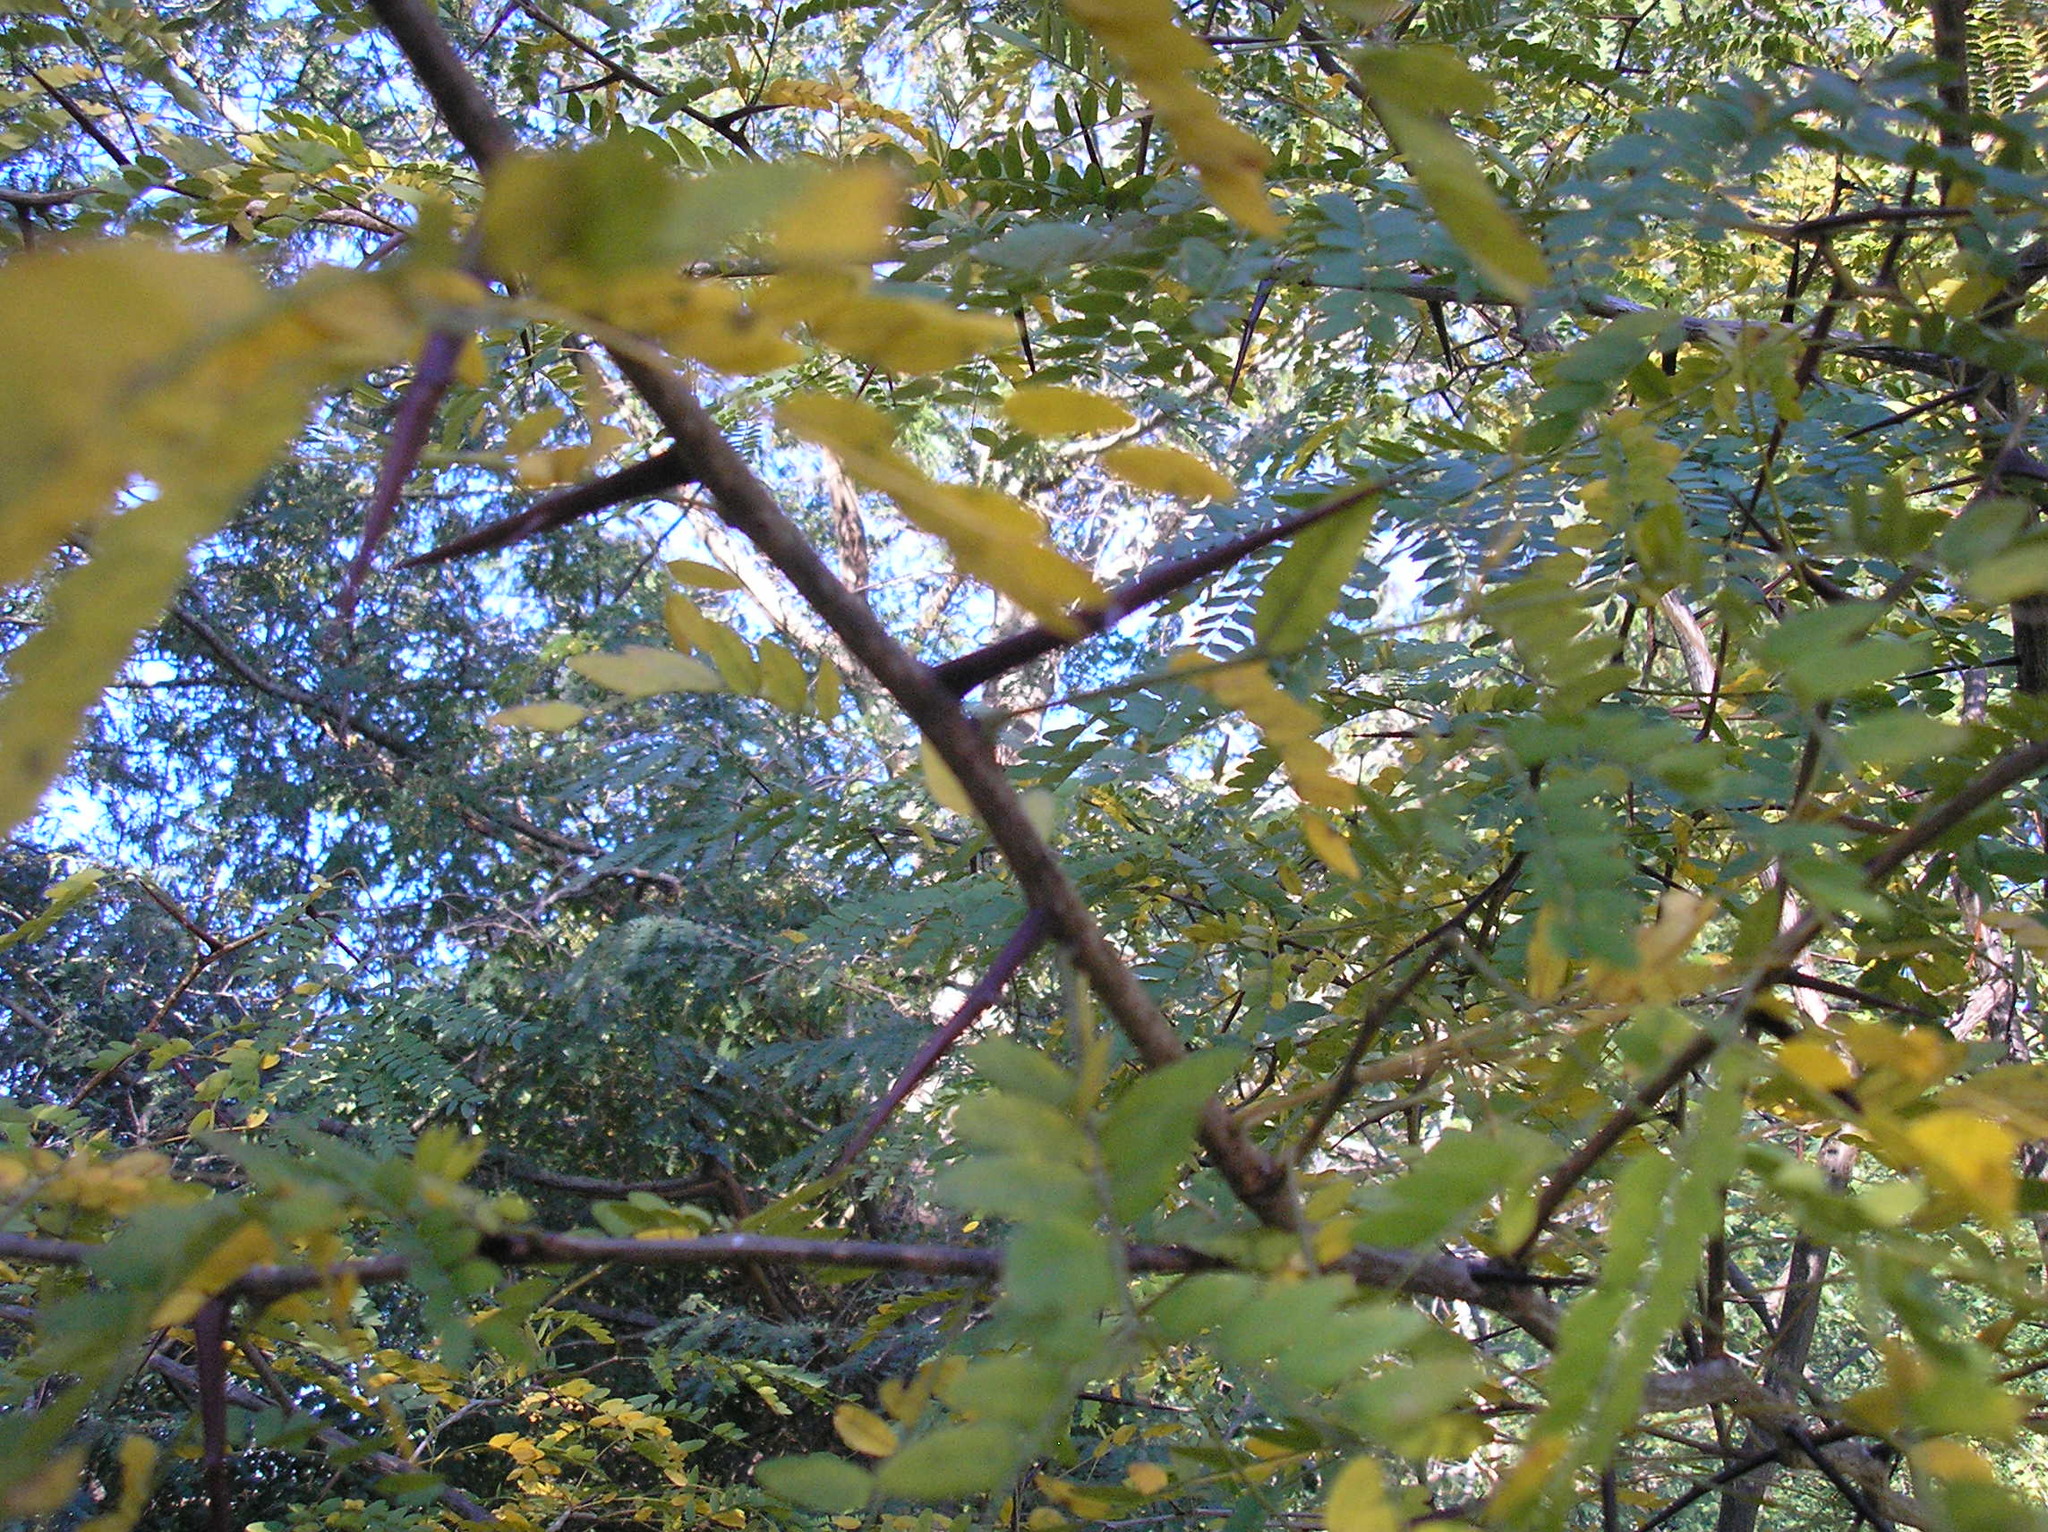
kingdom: Plantae
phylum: Tracheophyta
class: Magnoliopsida
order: Fabales
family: Fabaceae
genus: Gleditsia
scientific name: Gleditsia triacanthos
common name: Common honeylocust
